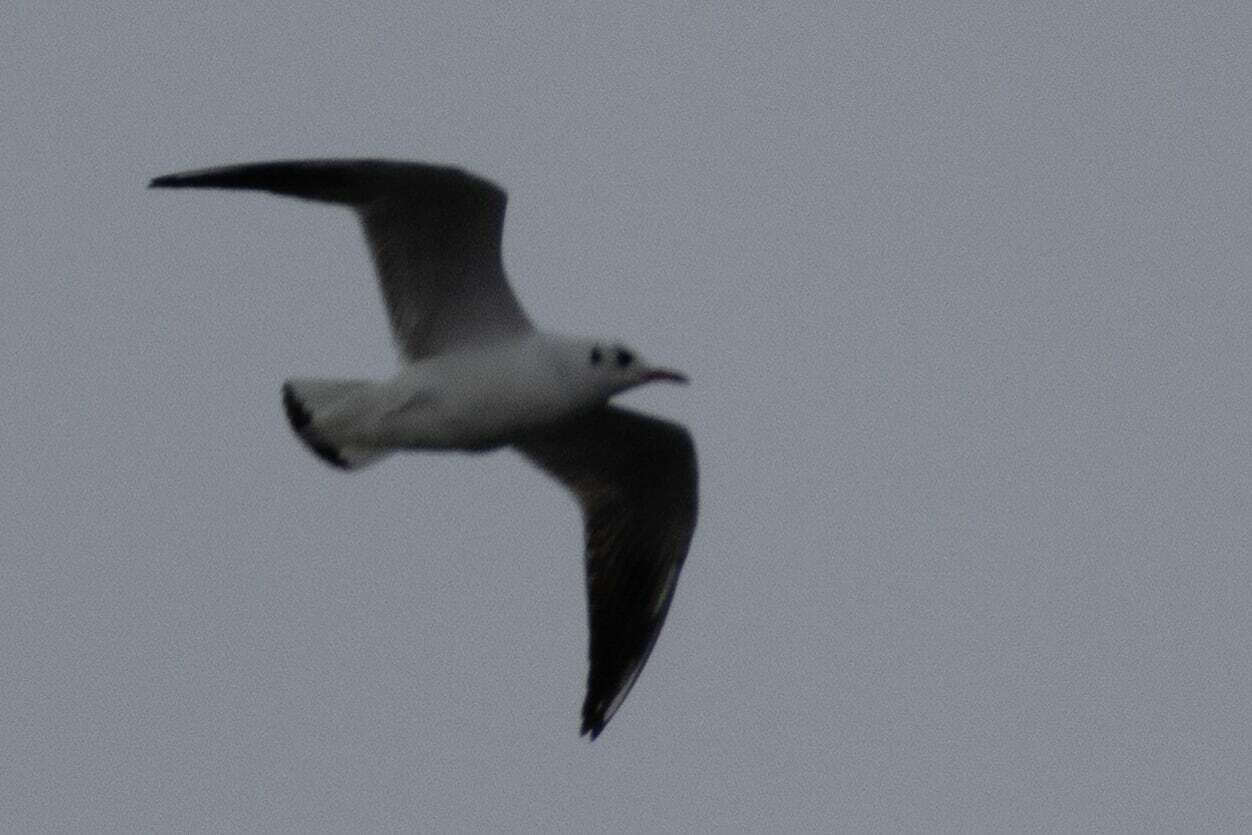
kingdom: Animalia
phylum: Chordata
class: Aves
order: Charadriiformes
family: Laridae
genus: Chroicocephalus
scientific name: Chroicocephalus ridibundus
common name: Black-headed gull
